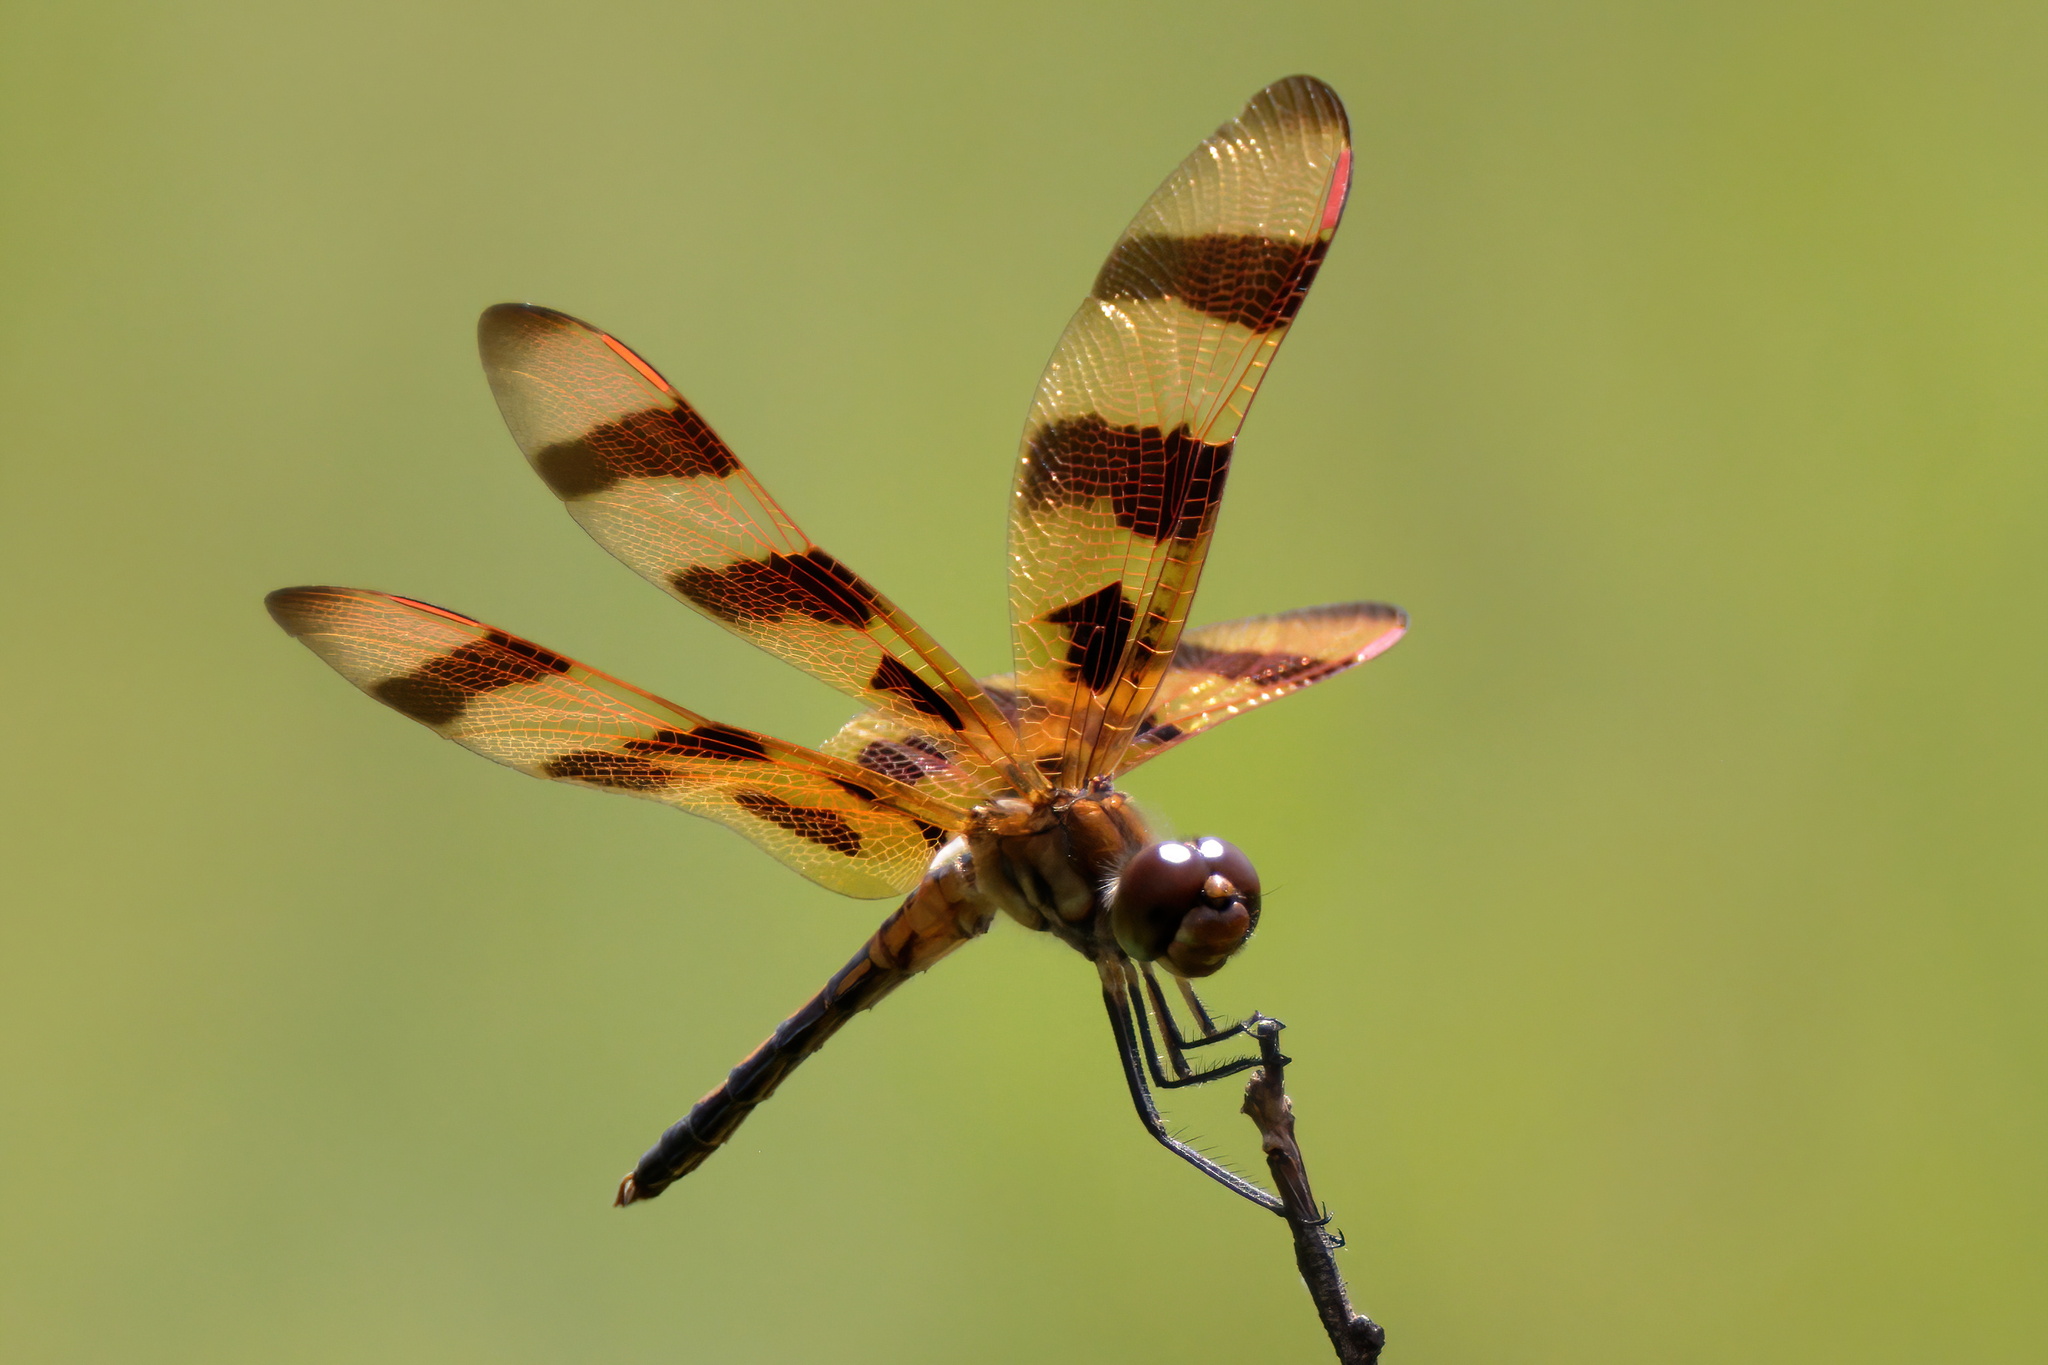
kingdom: Animalia
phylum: Arthropoda
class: Insecta
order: Odonata
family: Libellulidae
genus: Celithemis
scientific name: Celithemis eponina
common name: Halloween pennant
